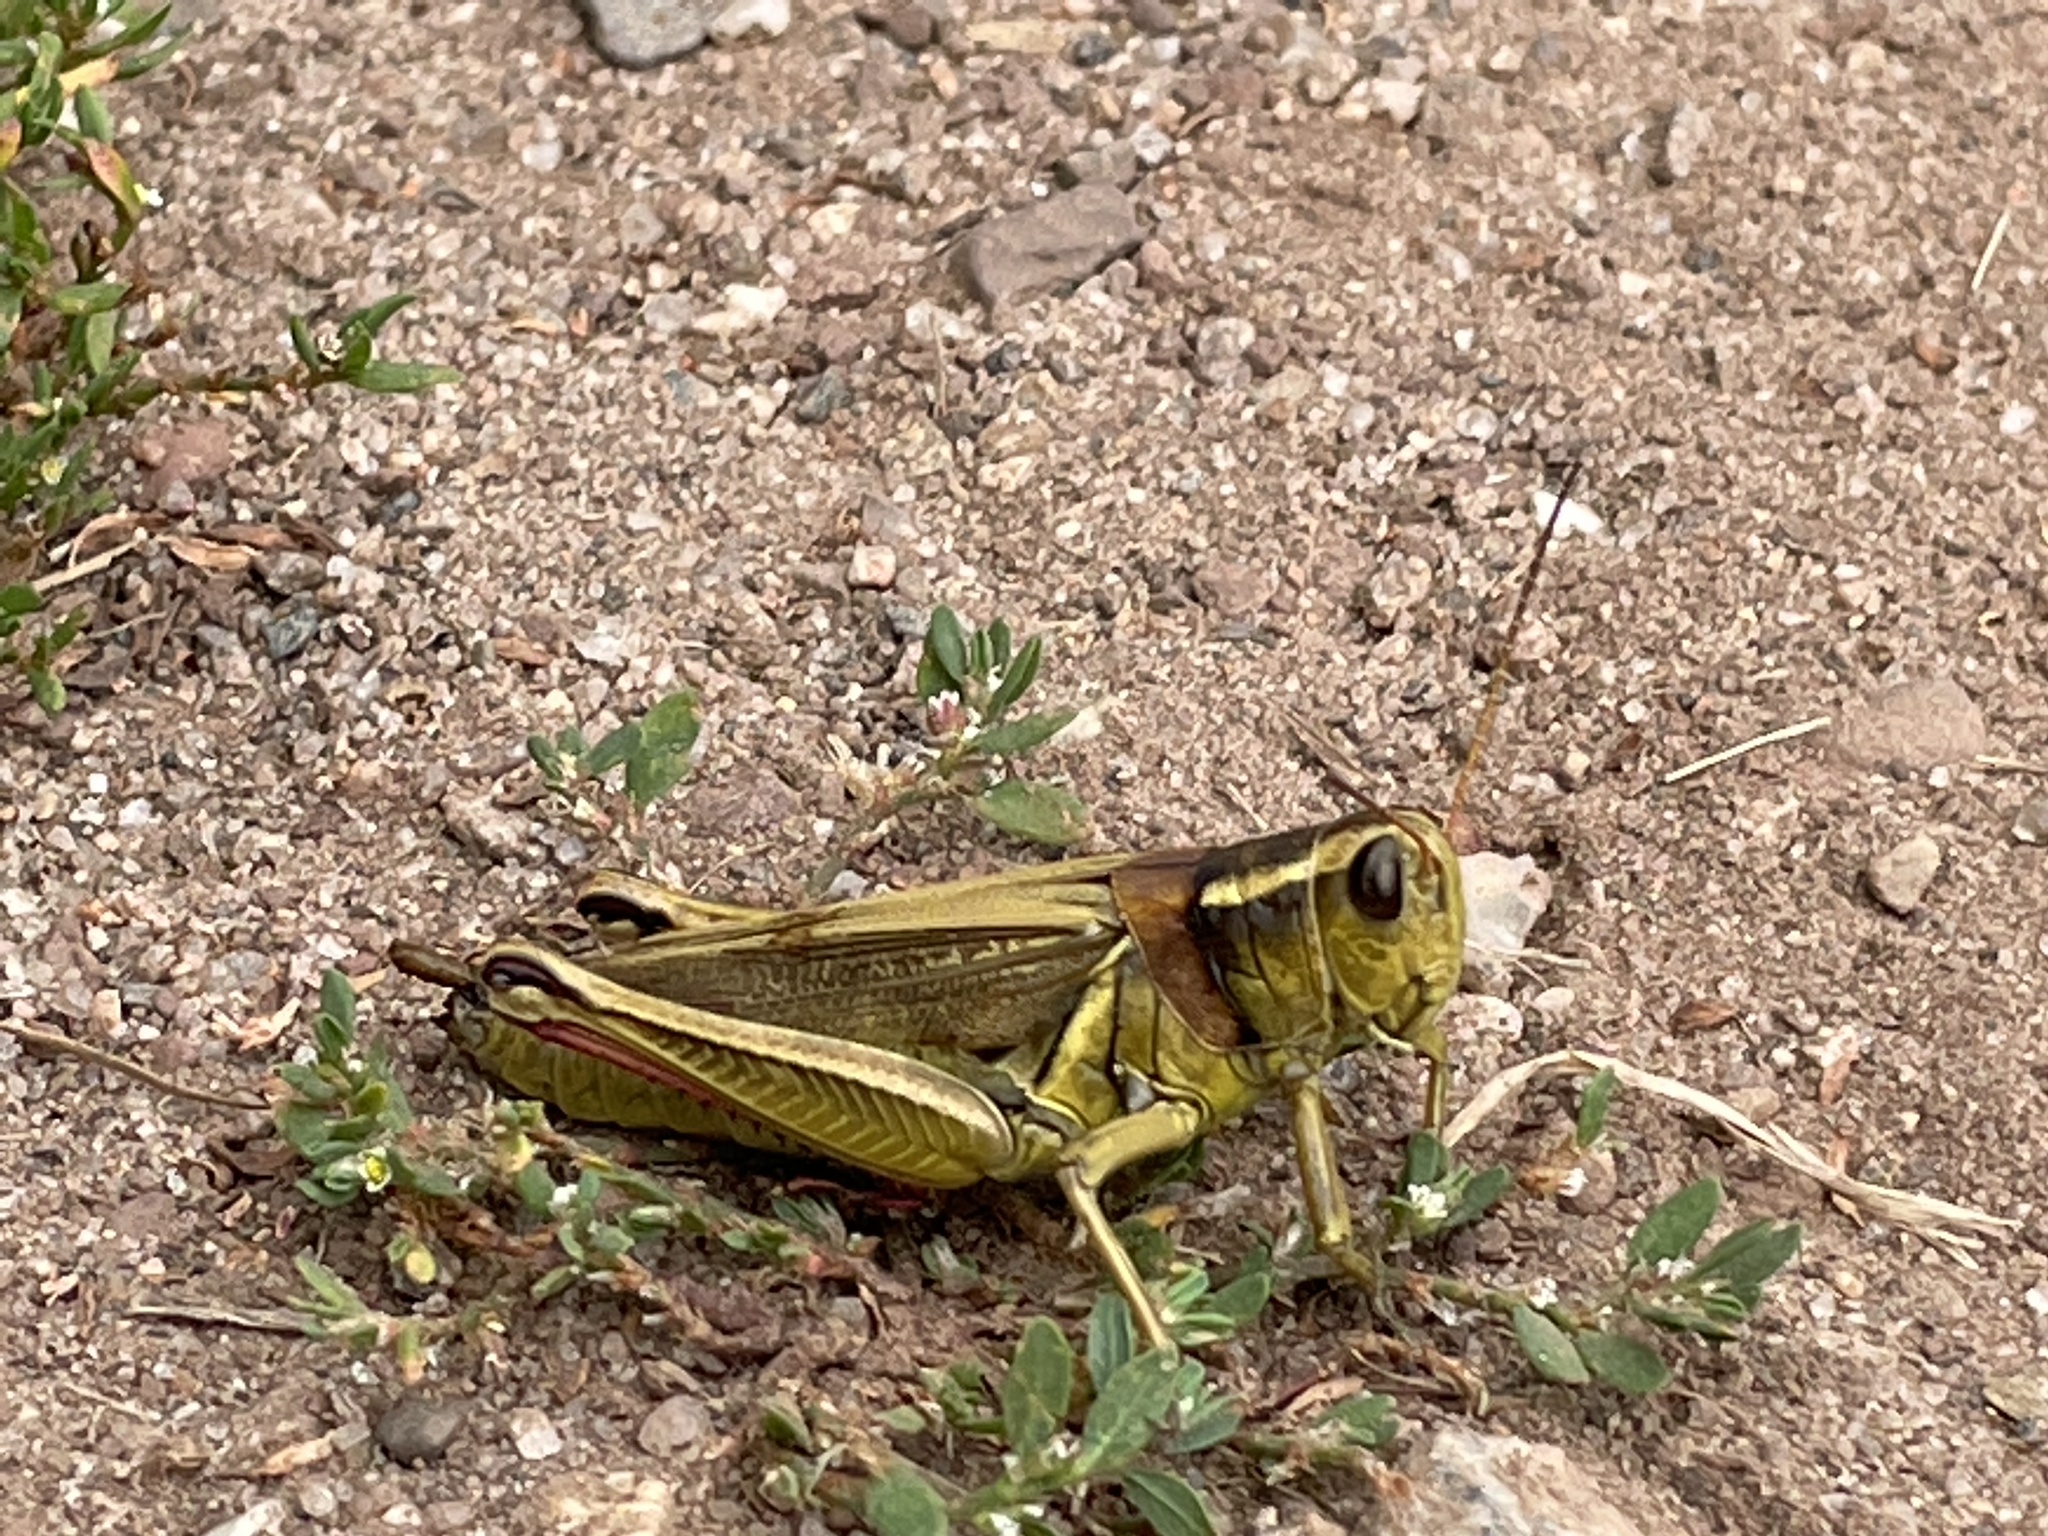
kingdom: Animalia
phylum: Arthropoda
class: Insecta
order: Orthoptera
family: Acrididae
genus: Melanoplus
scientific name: Melanoplus bivittatus
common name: Two-striped grasshopper
